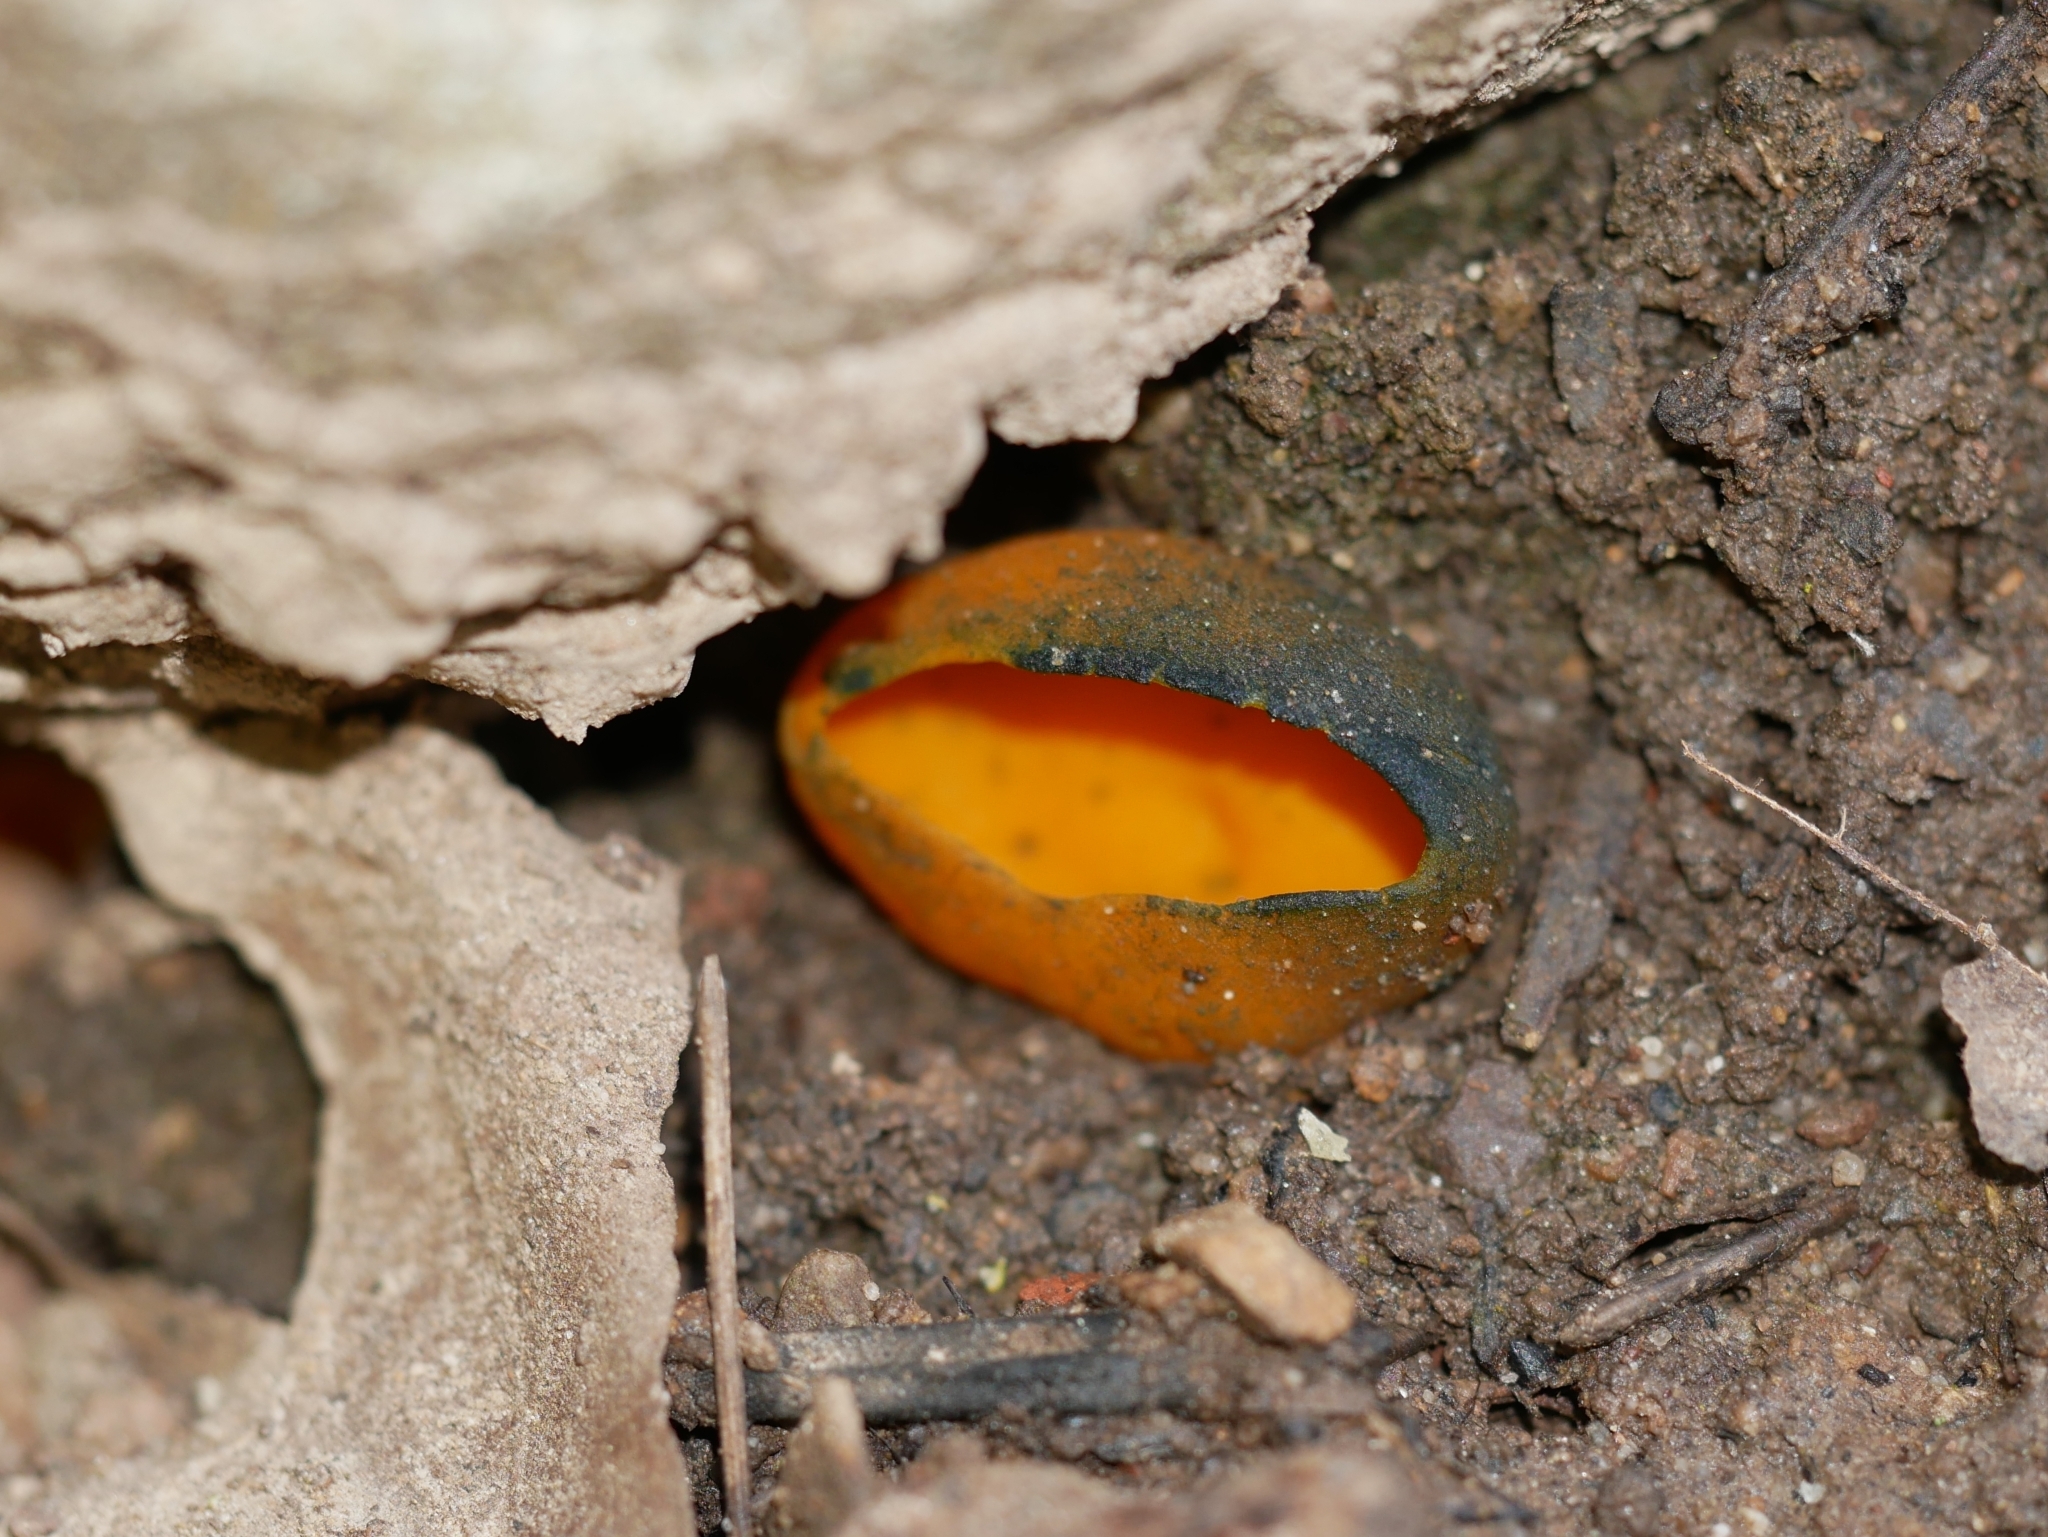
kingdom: Fungi
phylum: Ascomycota
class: Pezizomycetes
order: Pezizales
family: Caloscyphaceae
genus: Caloscypha
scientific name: Caloscypha fulgens
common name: Golden cup
